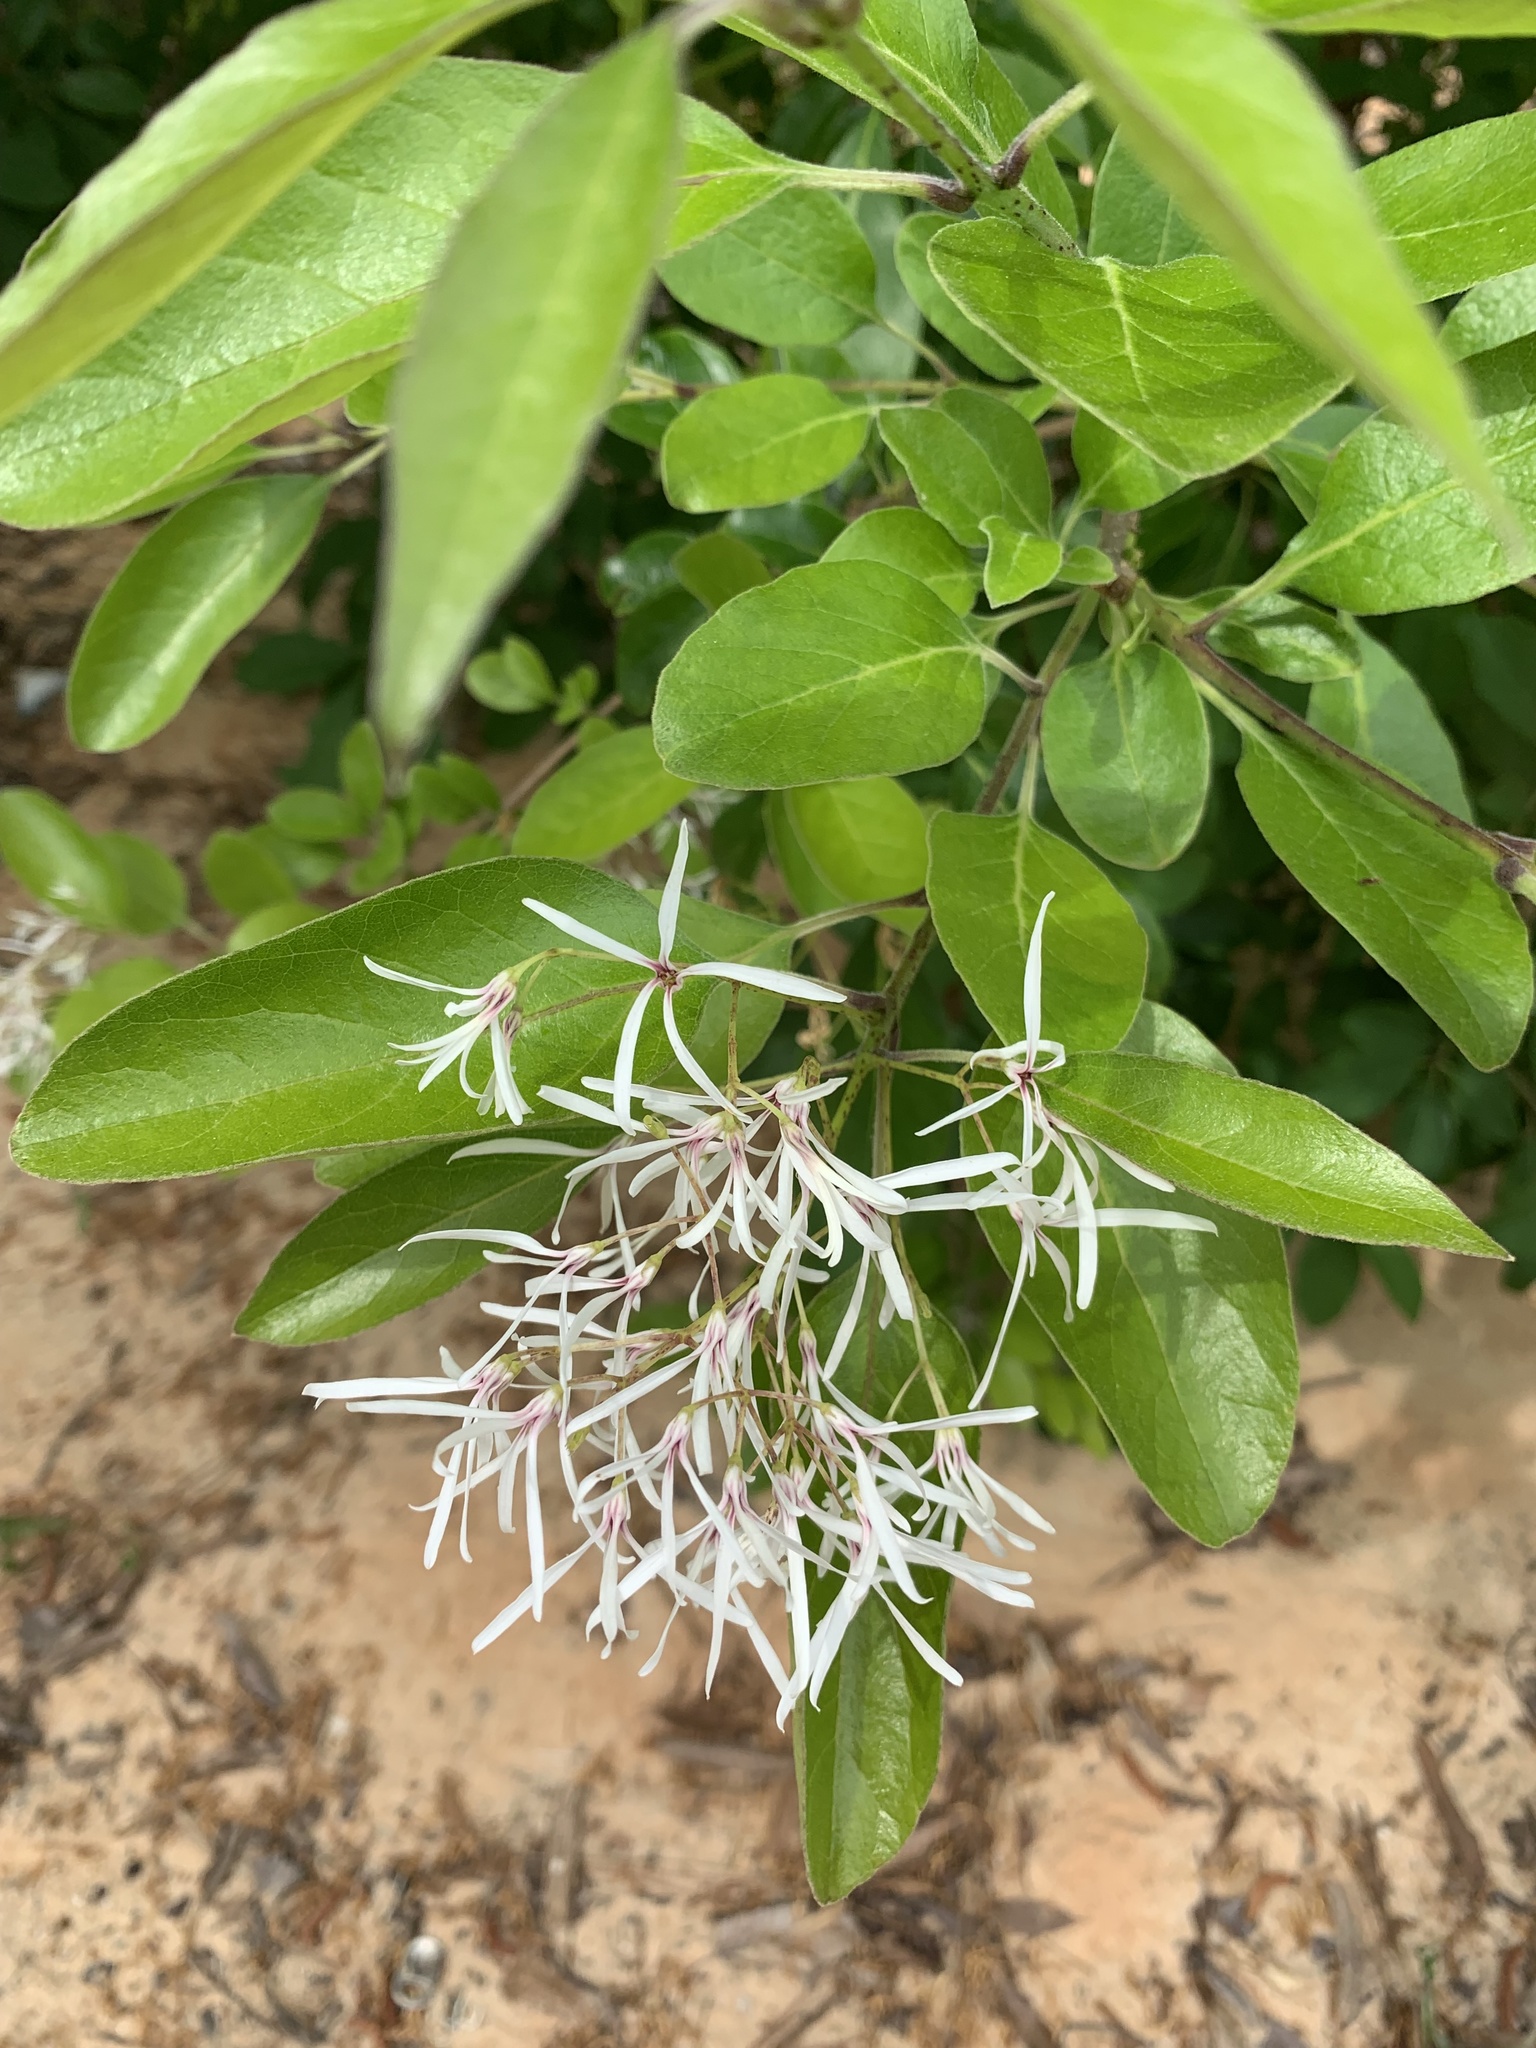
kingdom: Plantae
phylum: Tracheophyta
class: Magnoliopsida
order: Lamiales
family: Oleaceae
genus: Chionanthus
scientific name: Chionanthus virginicus
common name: American fringetree
